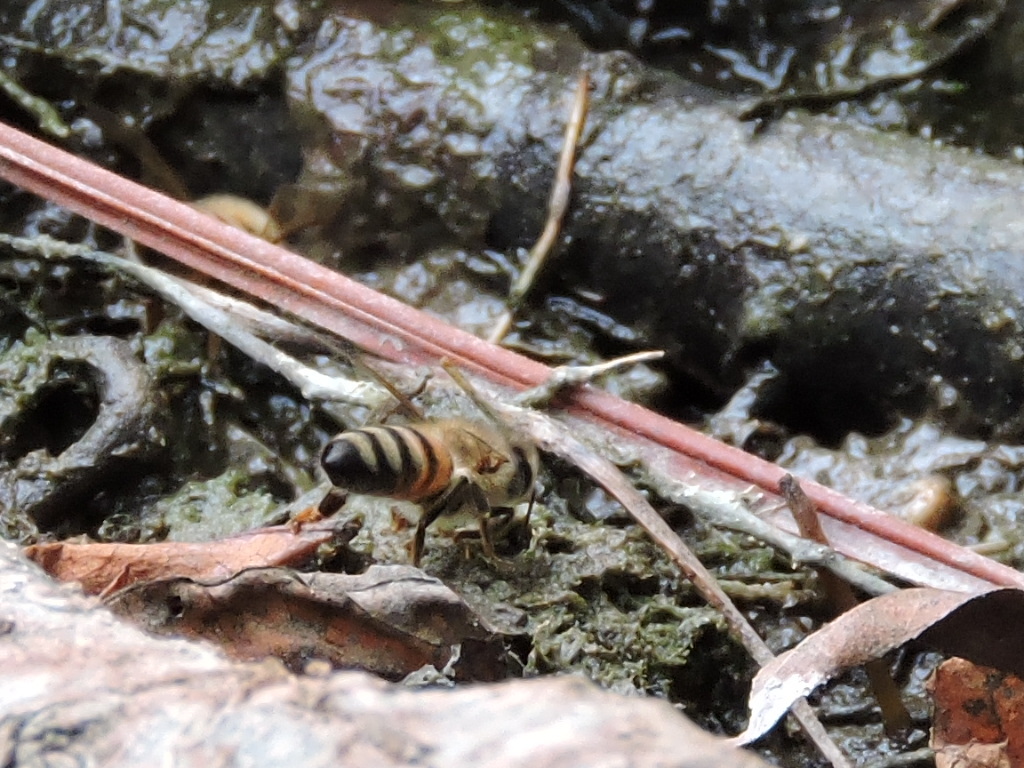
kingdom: Animalia
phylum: Arthropoda
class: Insecta
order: Hymenoptera
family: Apidae
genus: Apis
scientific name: Apis mellifera
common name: Honey bee
